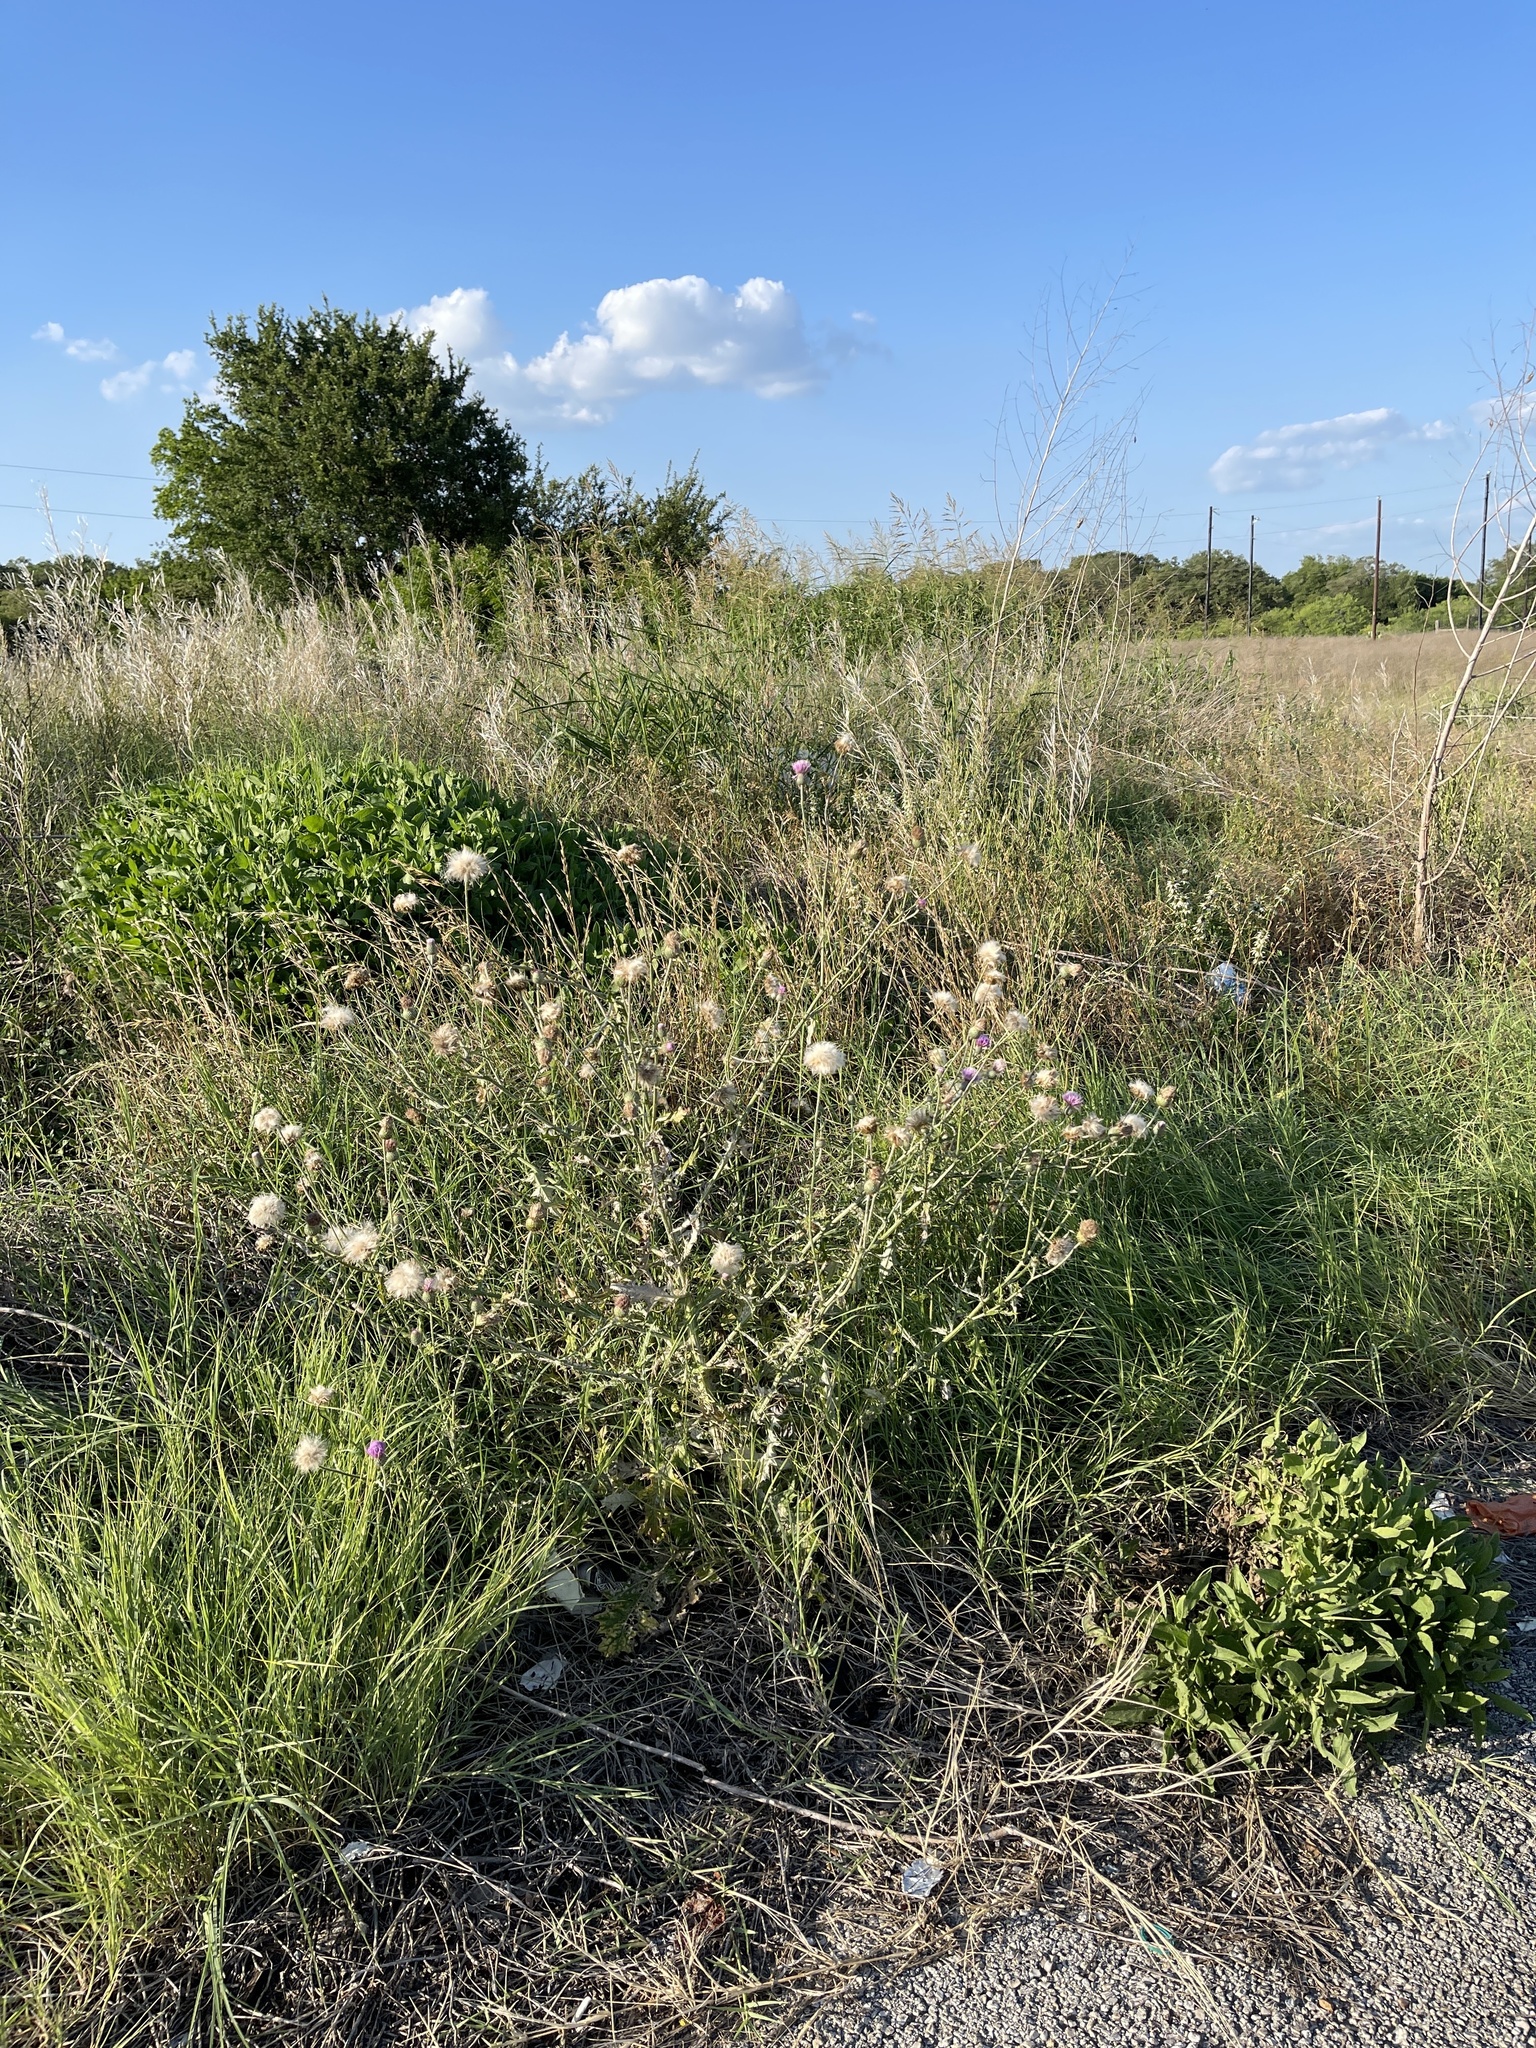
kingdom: Plantae
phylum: Tracheophyta
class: Magnoliopsida
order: Asterales
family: Asteraceae
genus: Cirsium
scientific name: Cirsium texanum
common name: Texas purple thistle
